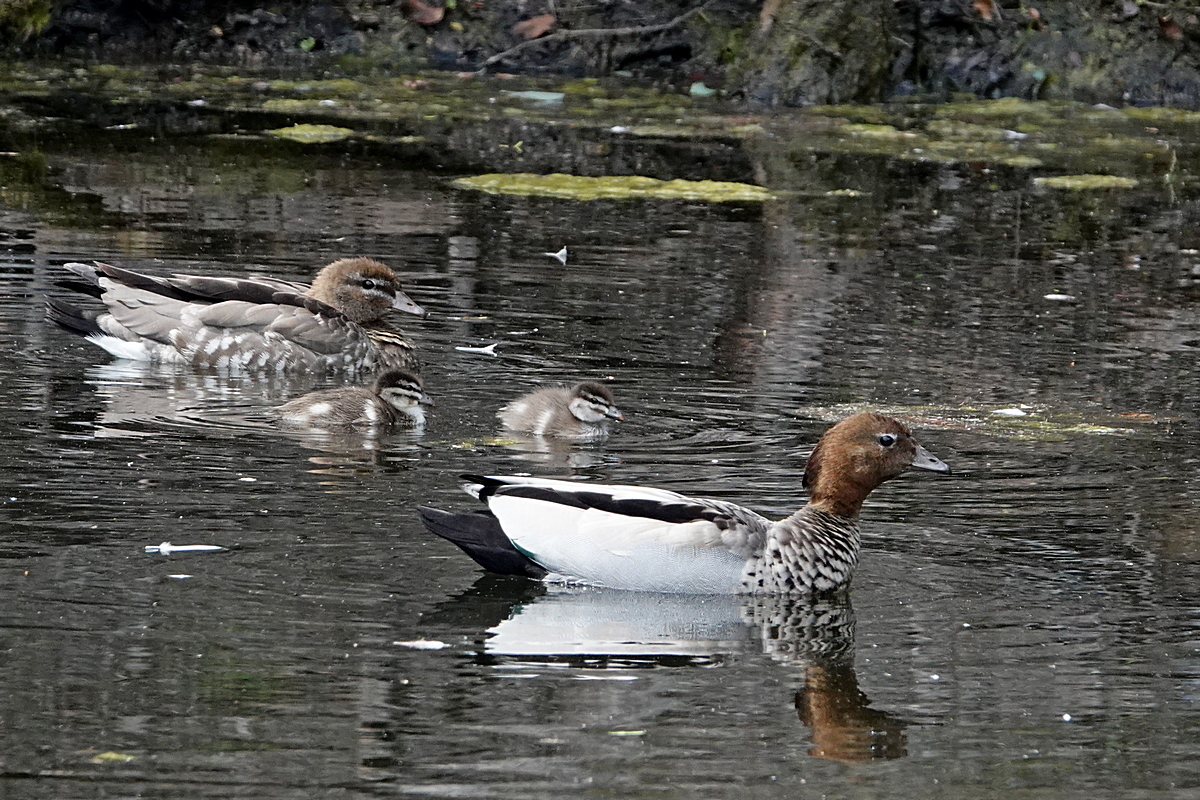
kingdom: Animalia
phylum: Chordata
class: Aves
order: Anseriformes
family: Anatidae
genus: Chenonetta
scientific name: Chenonetta jubata
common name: Maned duck
